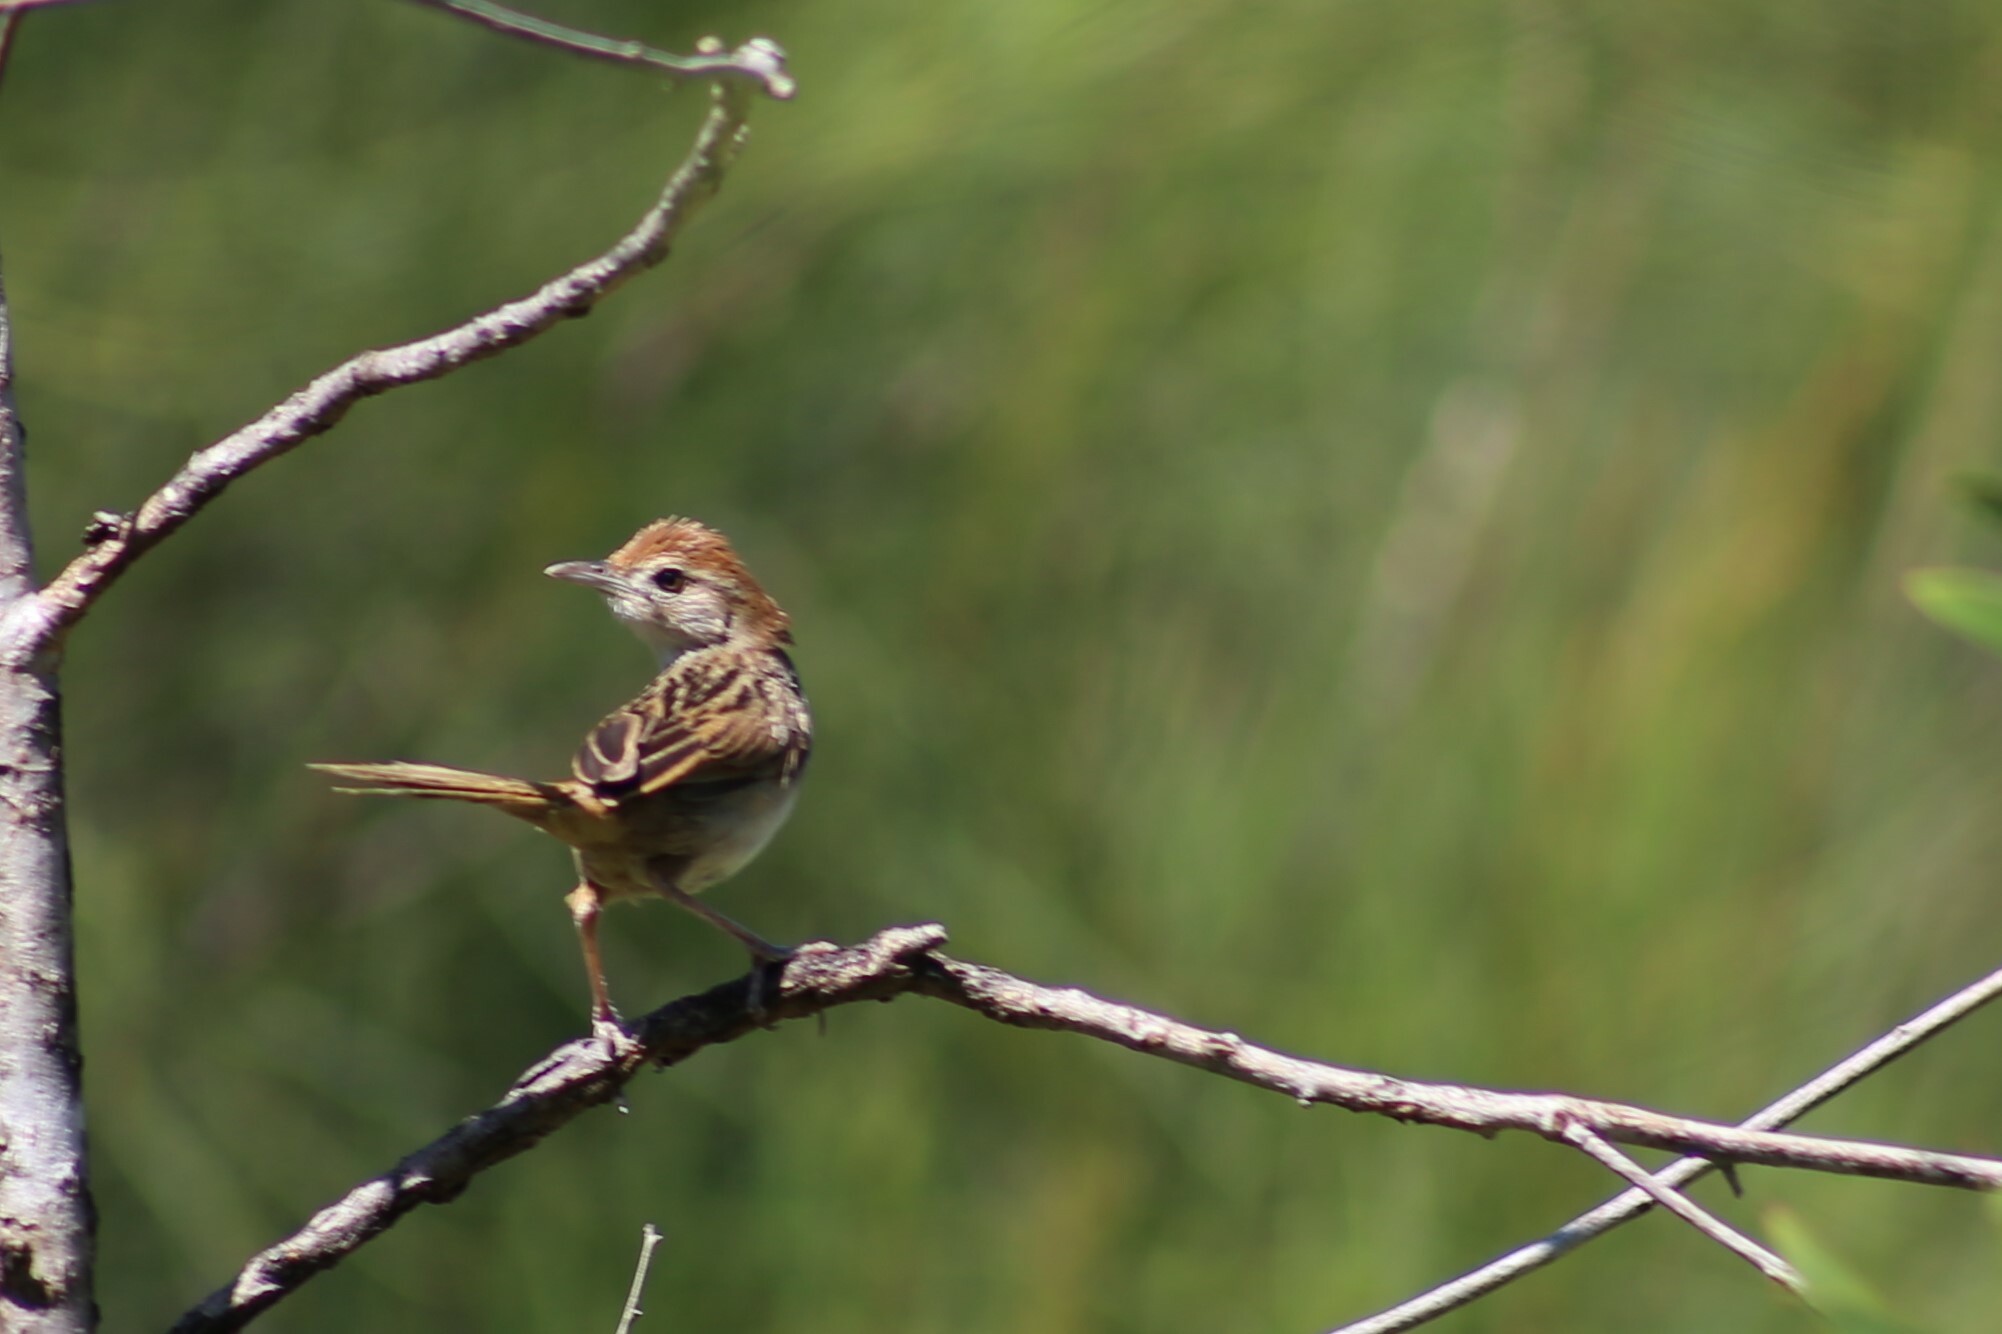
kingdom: Animalia
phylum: Chordata
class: Aves
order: Passeriformes
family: Locustellidae
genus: Megalurus
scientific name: Megalurus timoriensis
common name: Tawny grassbird
